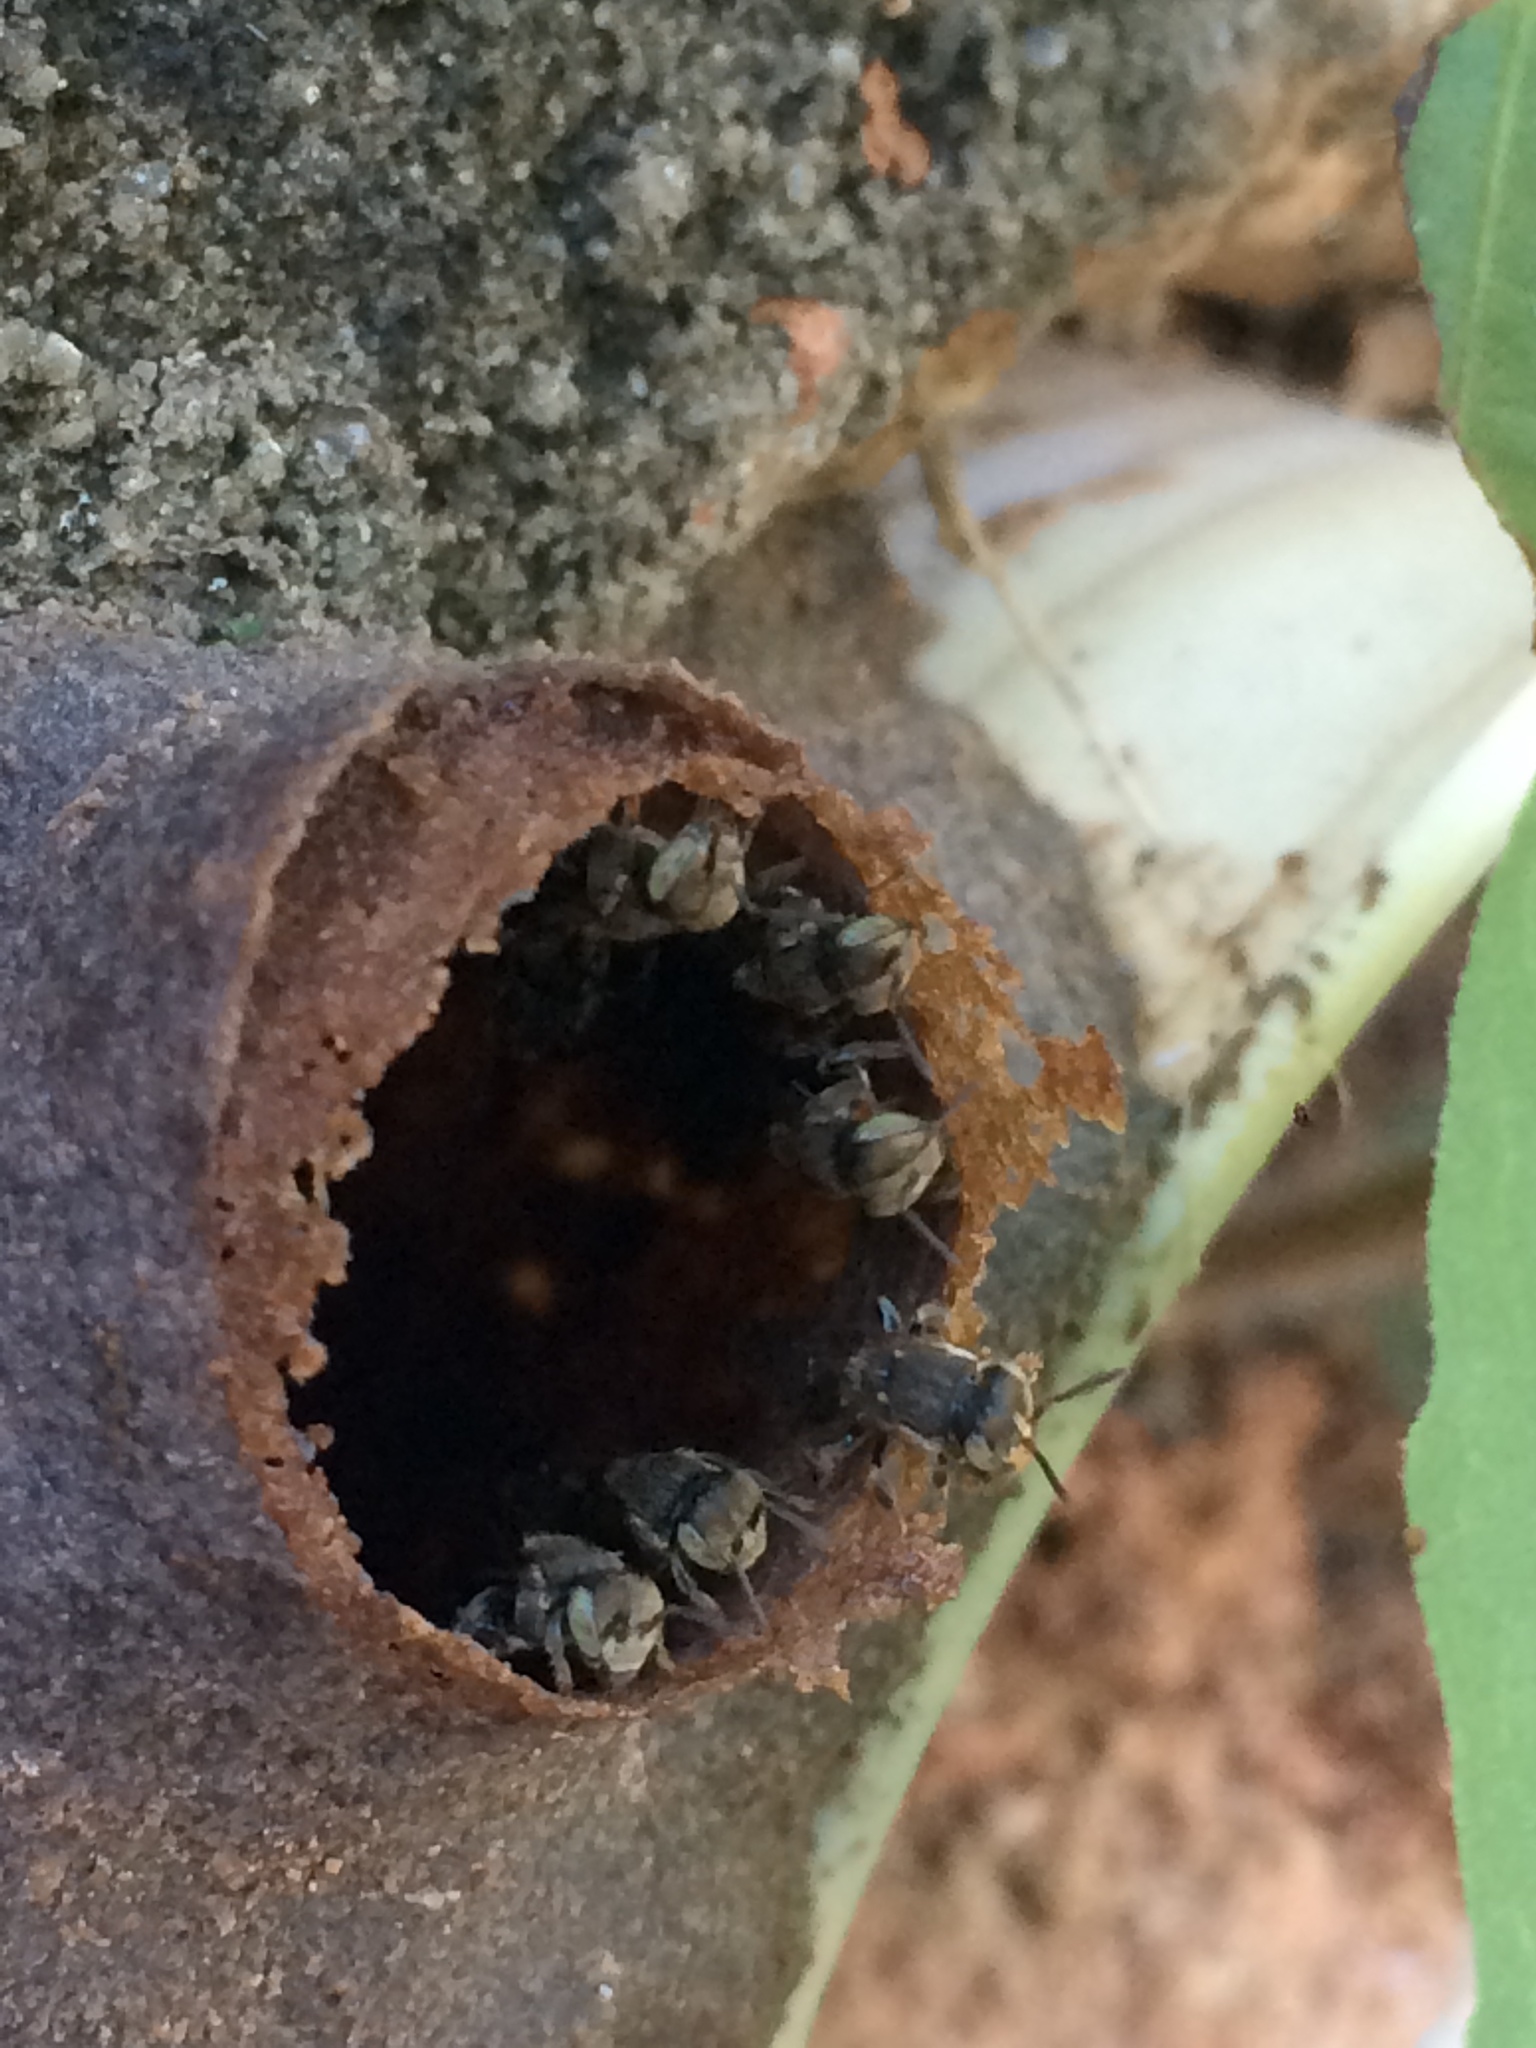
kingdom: Animalia
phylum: Arthropoda
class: Insecta
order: Hymenoptera
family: Apidae
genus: Nannotrigona
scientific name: Nannotrigona testaceicornis
